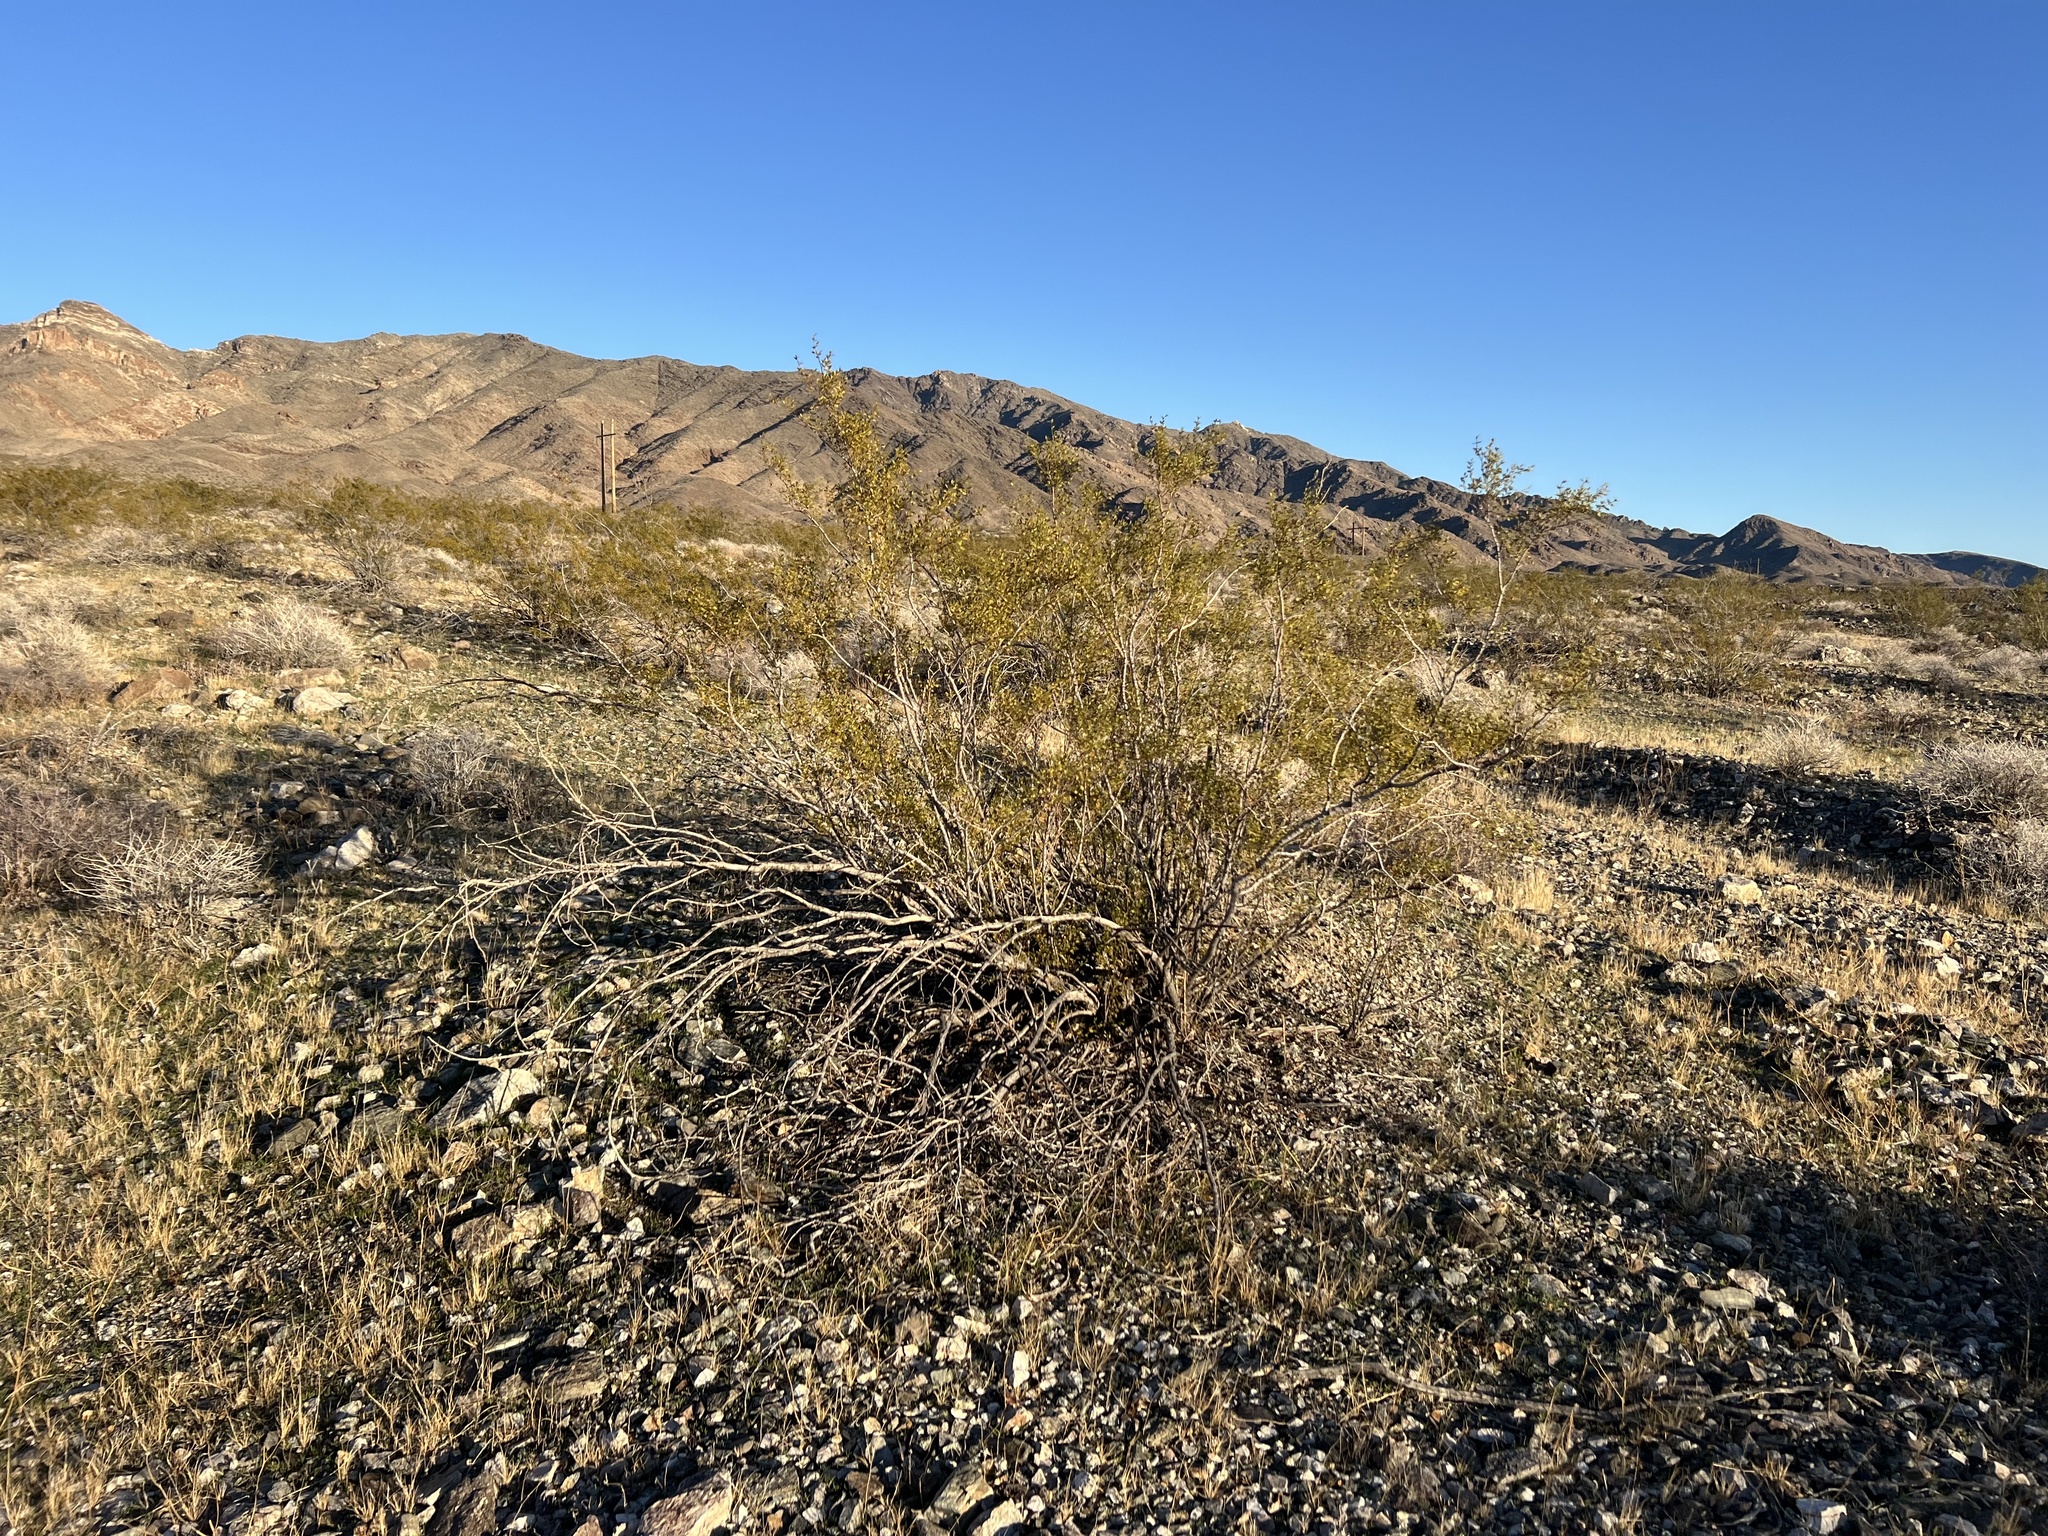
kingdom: Plantae
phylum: Tracheophyta
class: Magnoliopsida
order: Zygophyllales
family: Zygophyllaceae
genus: Larrea
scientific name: Larrea tridentata
